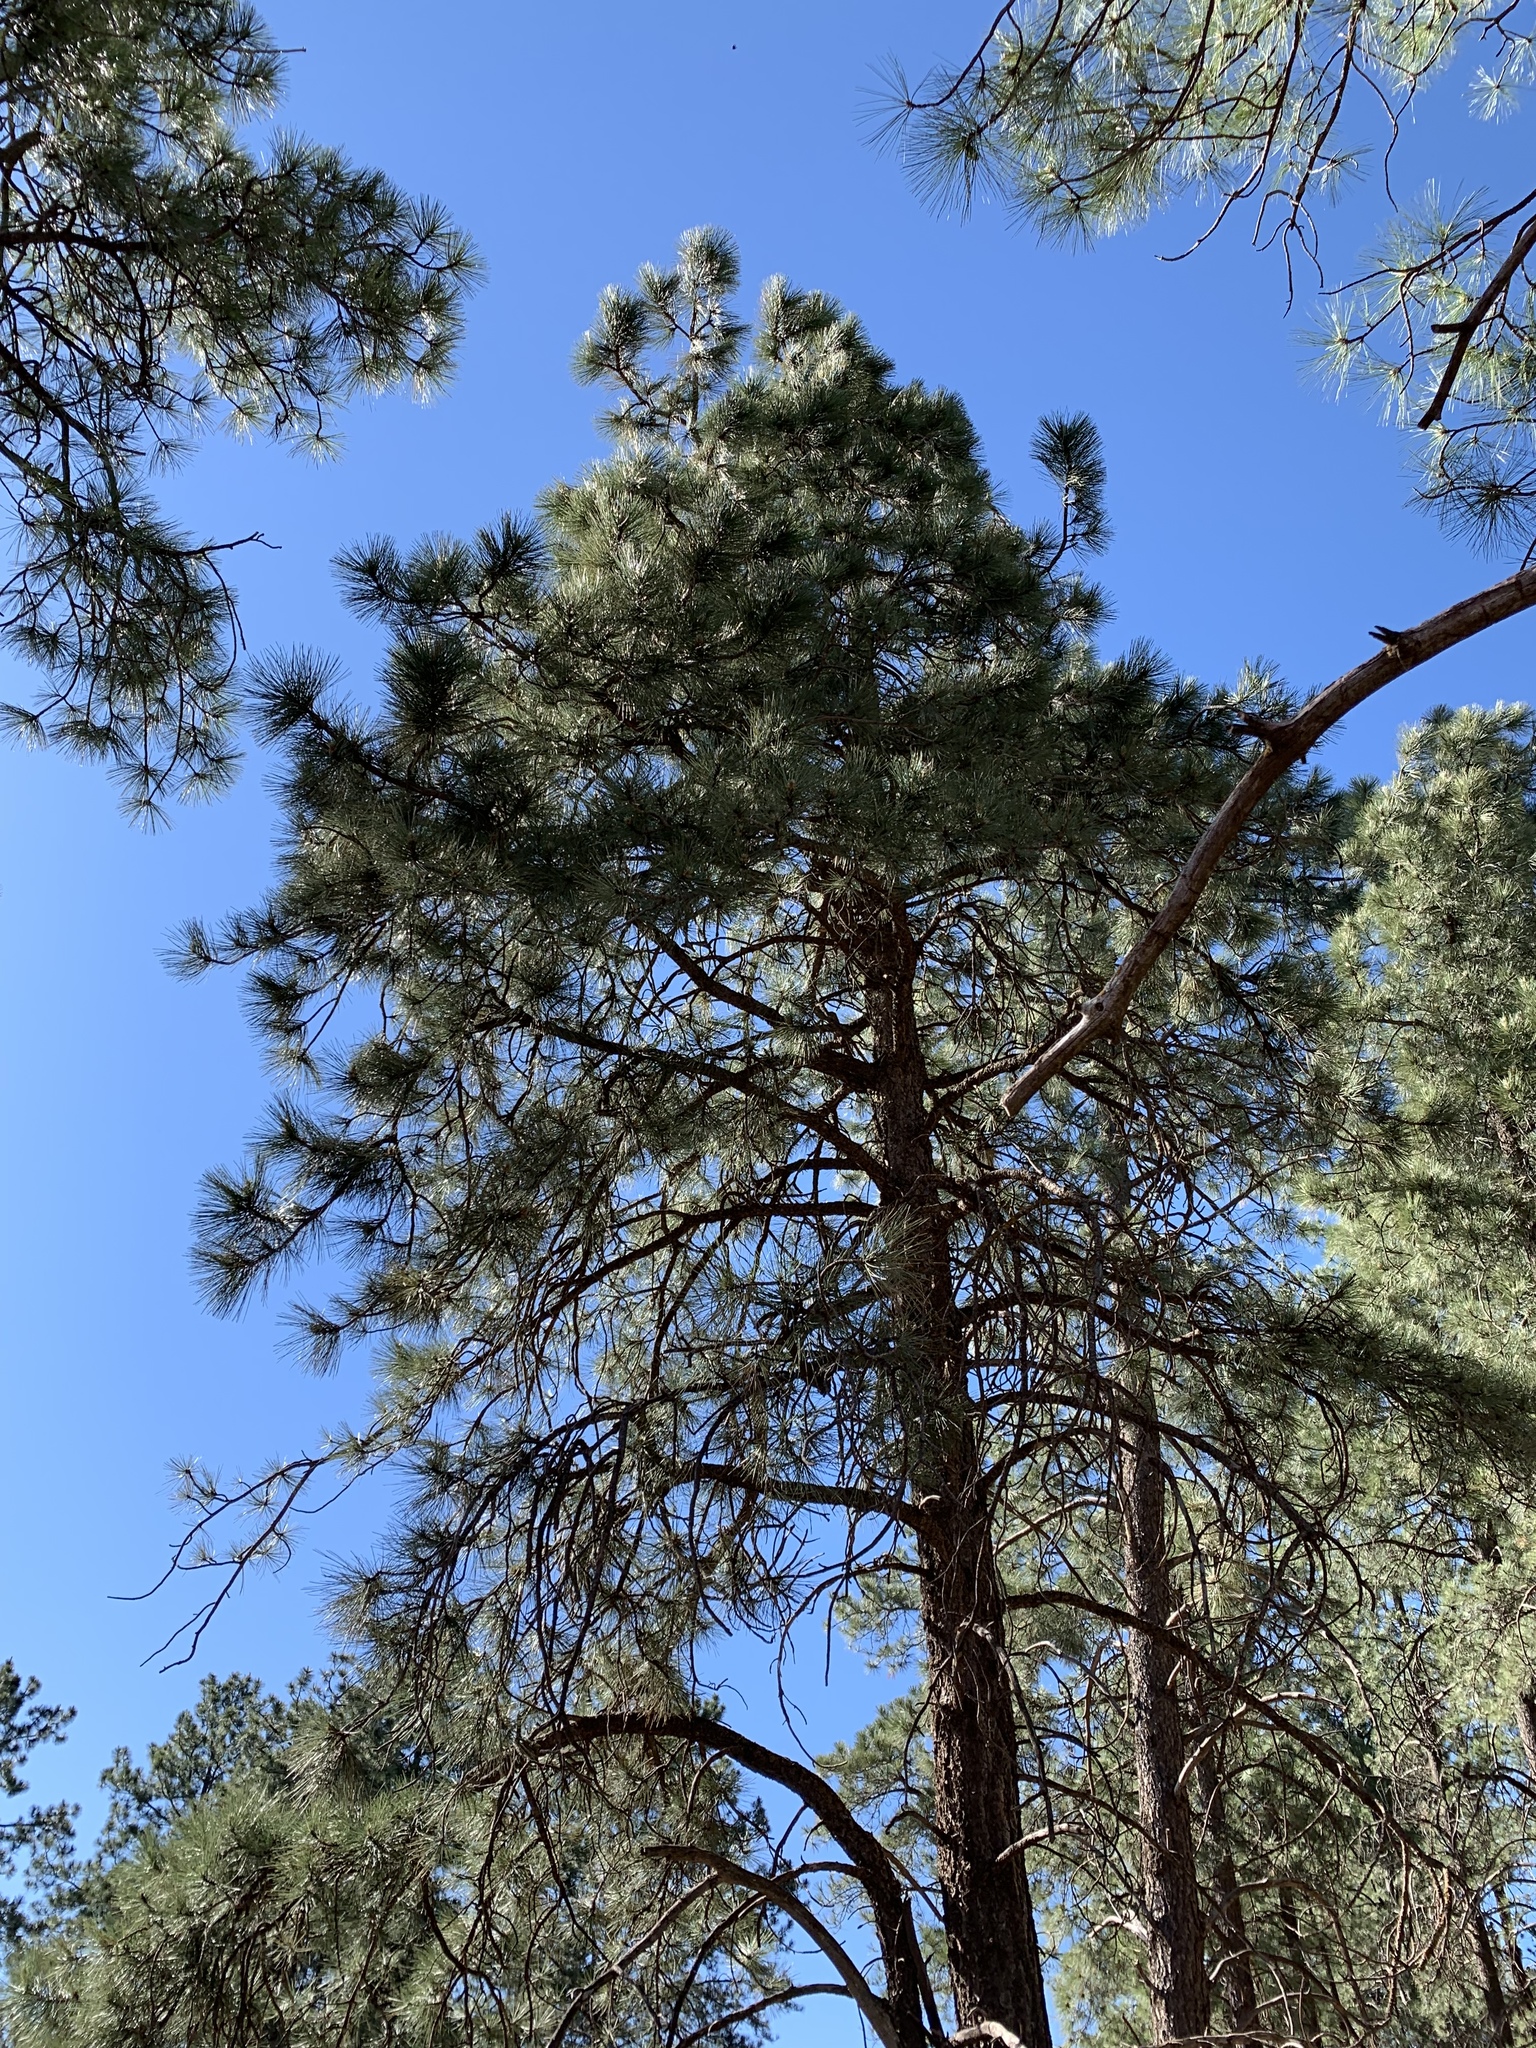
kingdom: Plantae
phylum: Tracheophyta
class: Pinopsida
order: Pinales
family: Pinaceae
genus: Pinus
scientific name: Pinus ponderosa
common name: Western yellow-pine
